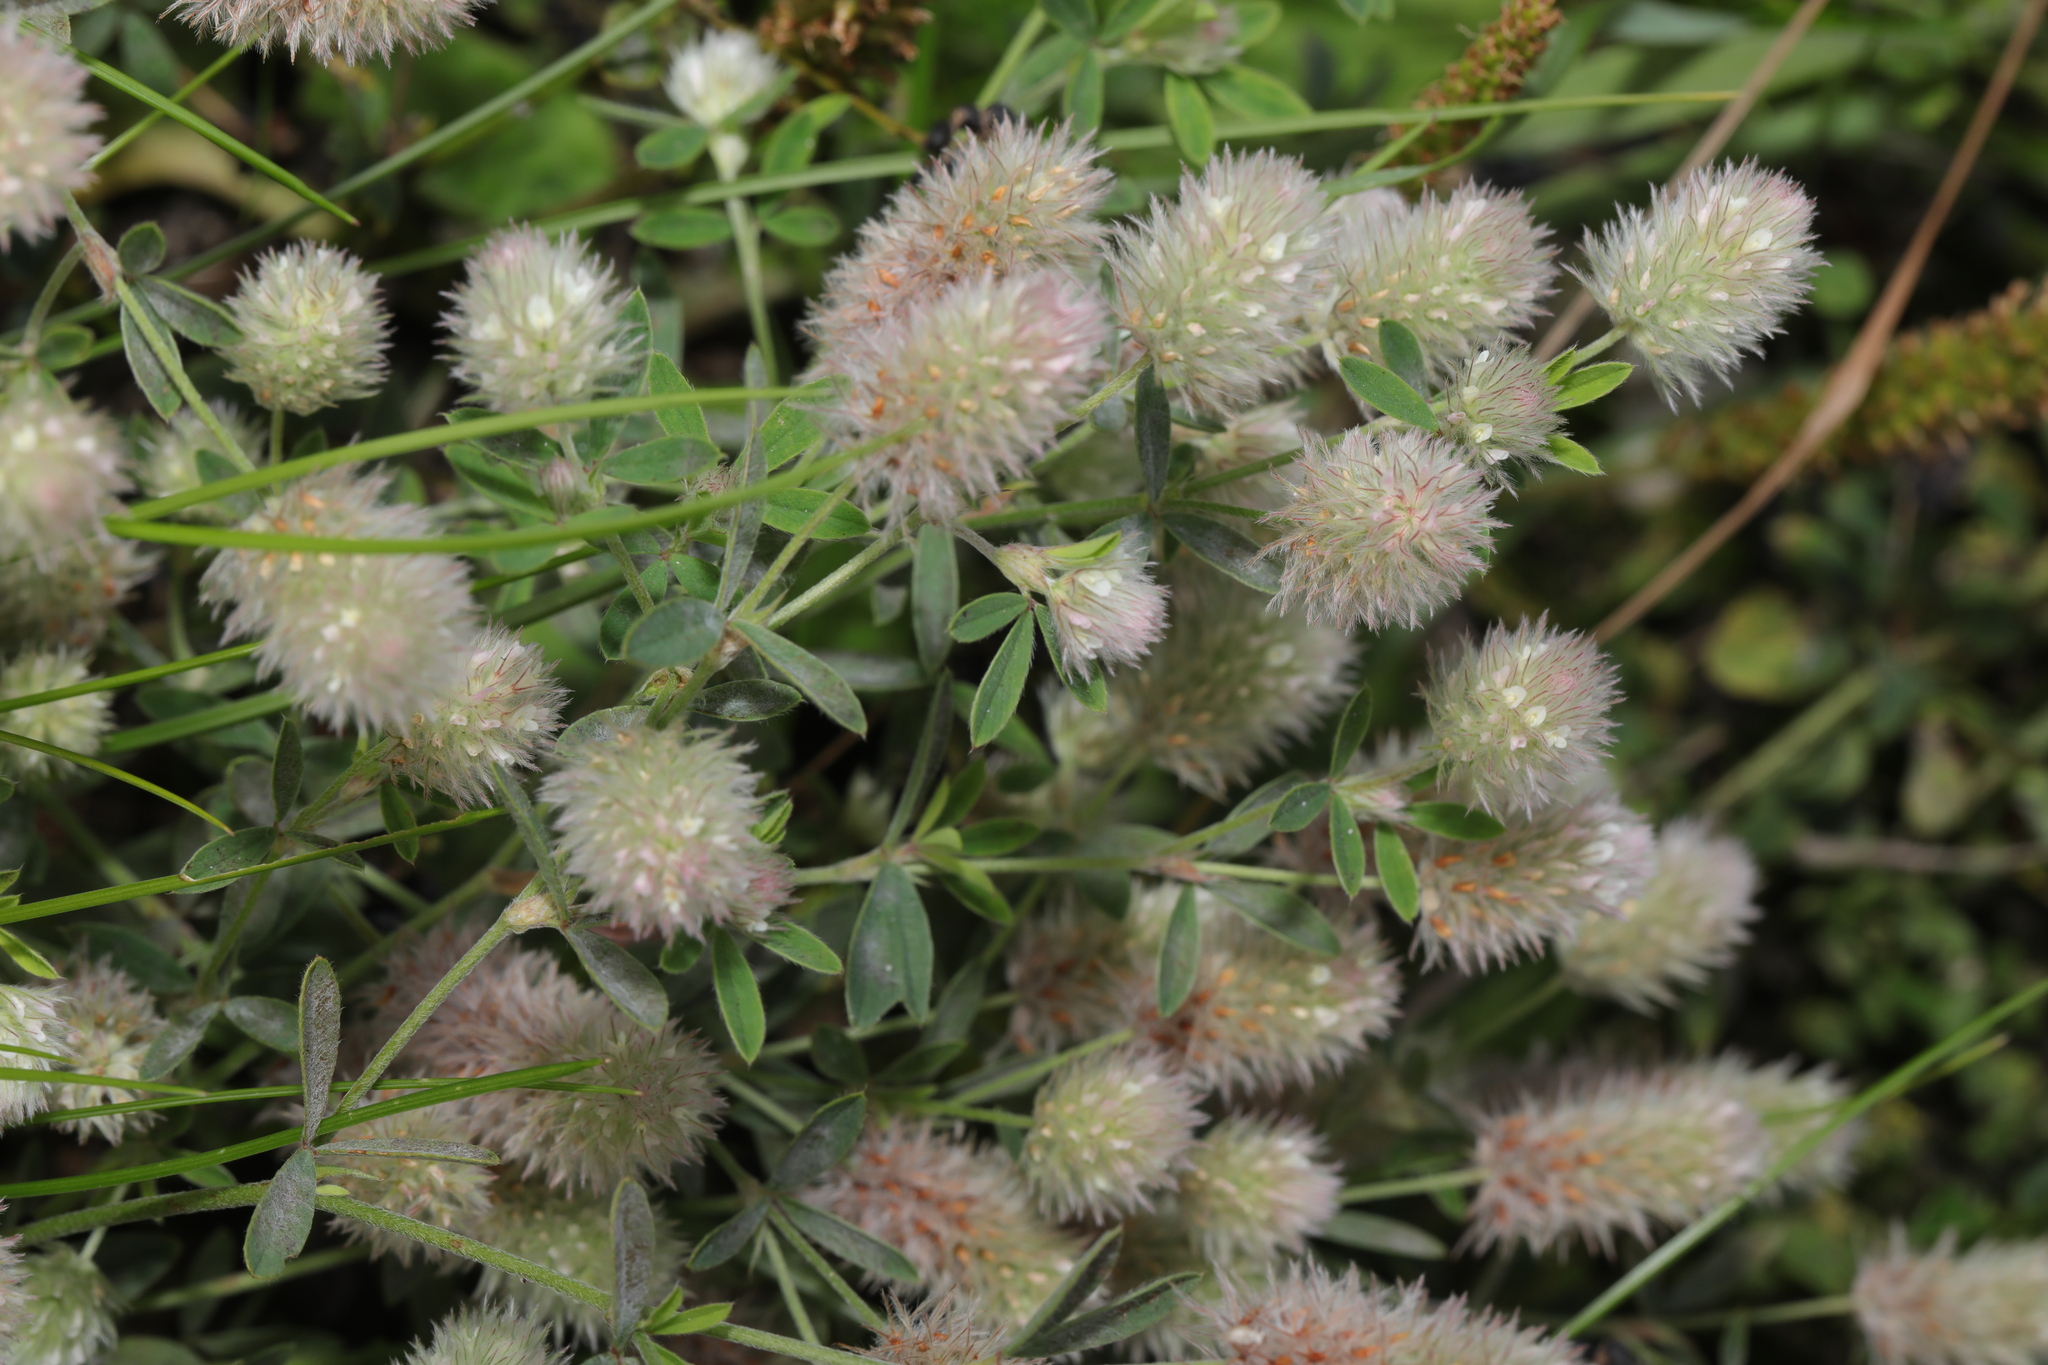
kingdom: Plantae
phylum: Tracheophyta
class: Magnoliopsida
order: Fabales
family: Fabaceae
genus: Trifolium
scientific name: Trifolium arvense
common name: Hare's-foot clover
